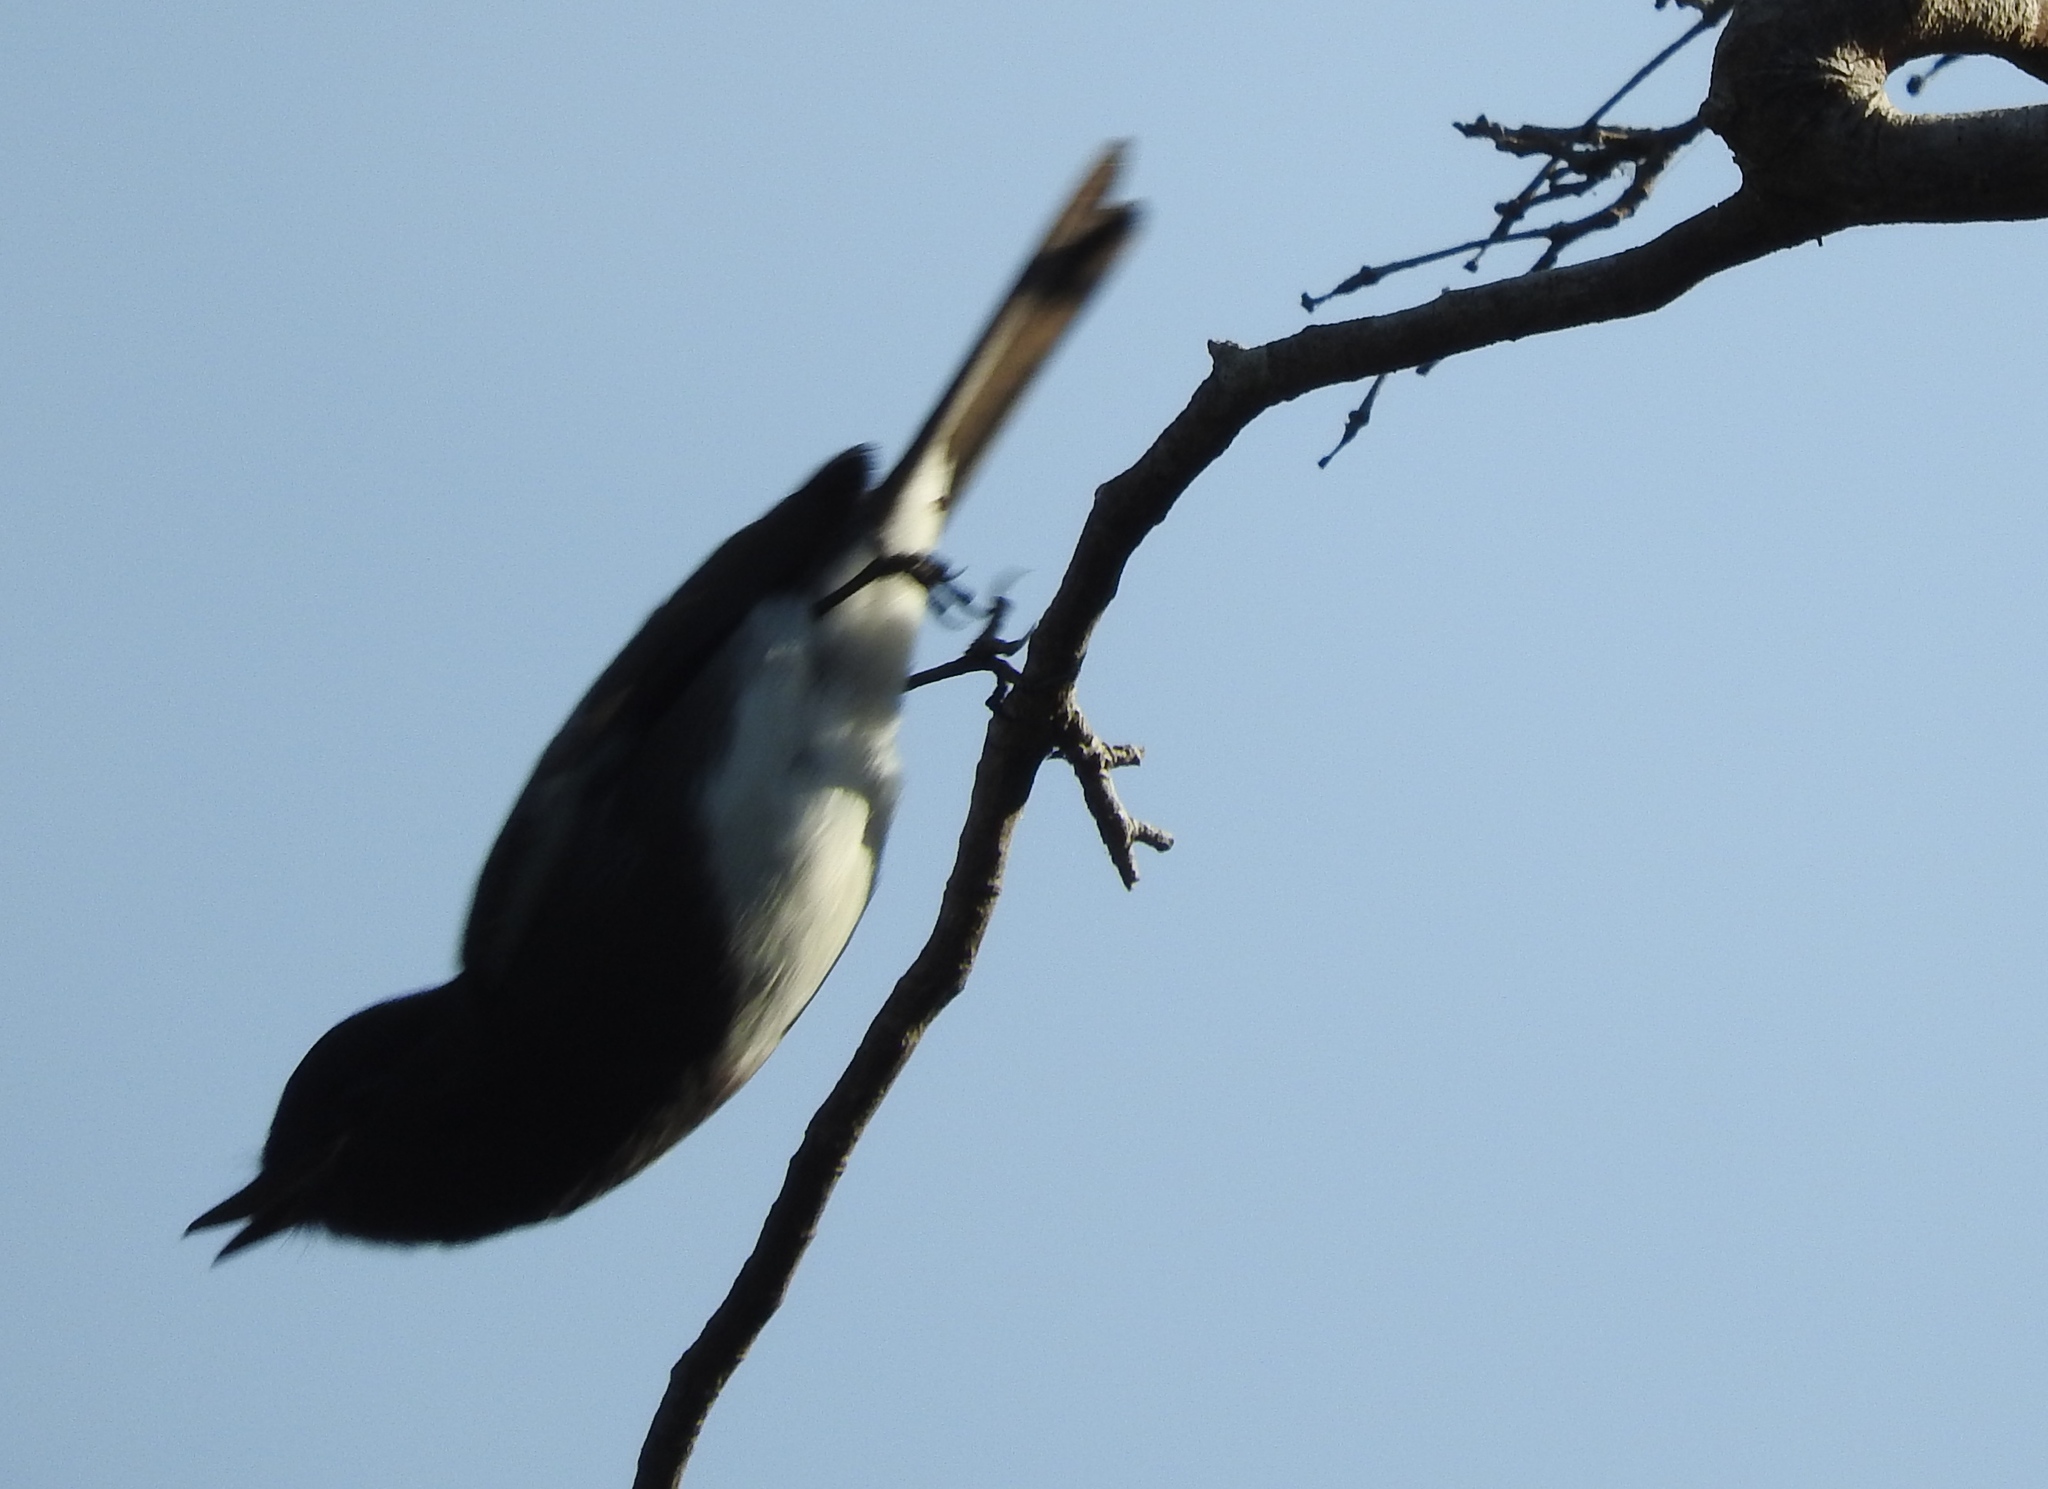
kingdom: Animalia
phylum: Chordata
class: Aves
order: Passeriformes
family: Tyrannidae
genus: Sayornis
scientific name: Sayornis nigricans
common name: Black phoebe
